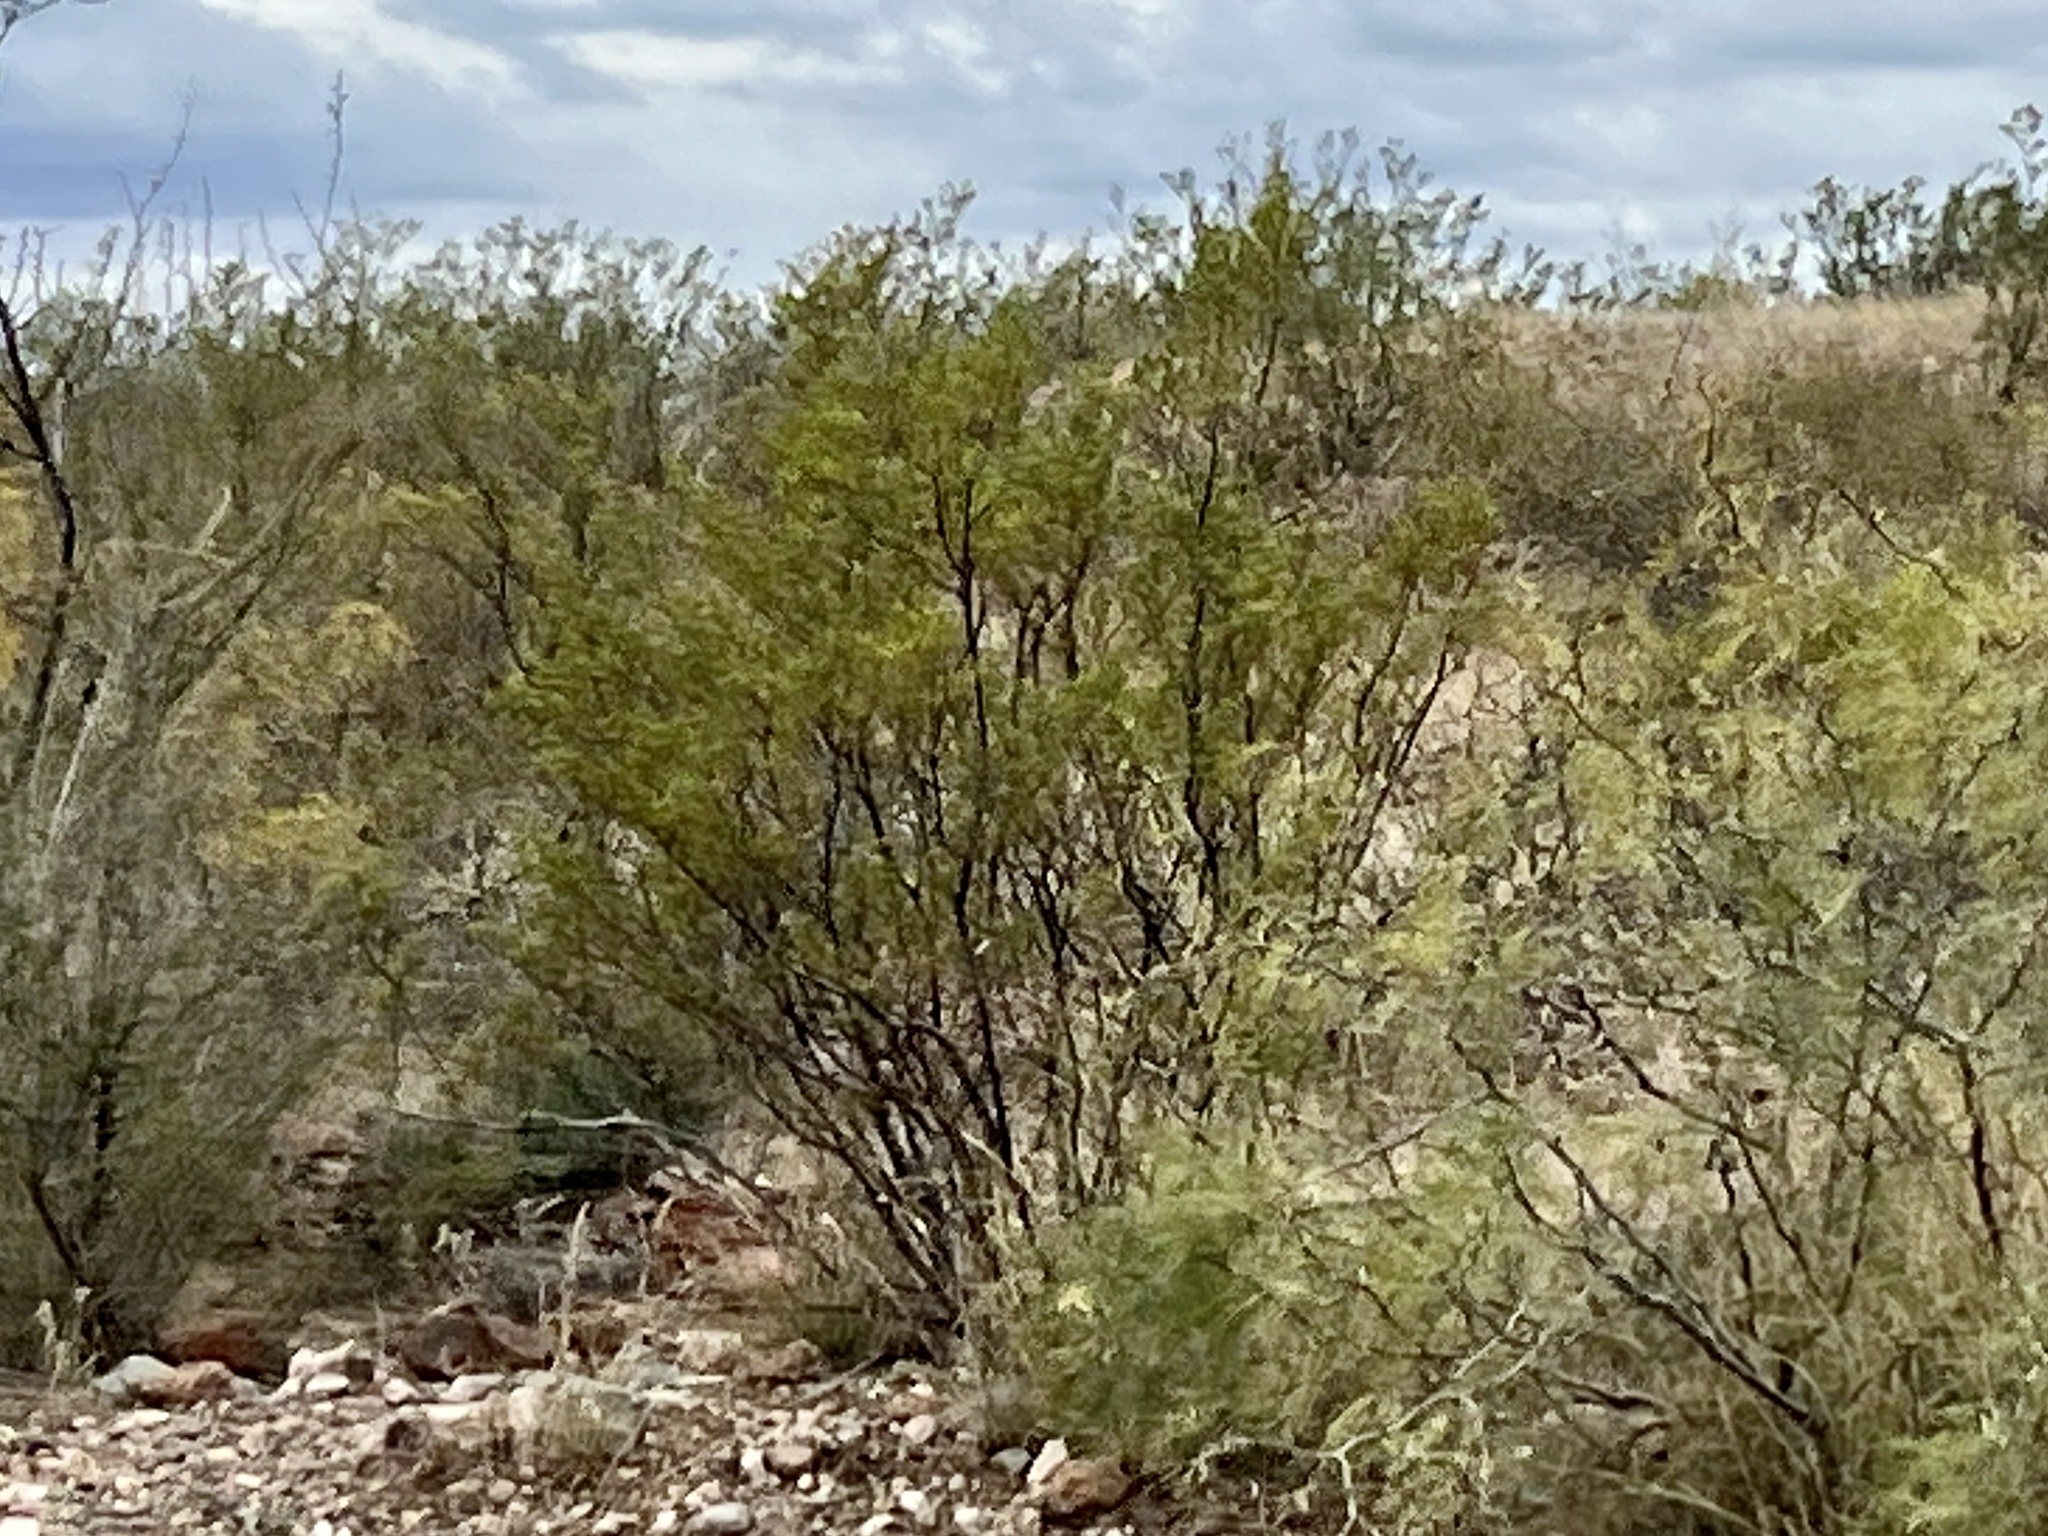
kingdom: Plantae
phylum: Tracheophyta
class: Magnoliopsida
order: Zygophyllales
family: Zygophyllaceae
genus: Larrea
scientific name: Larrea tridentata
